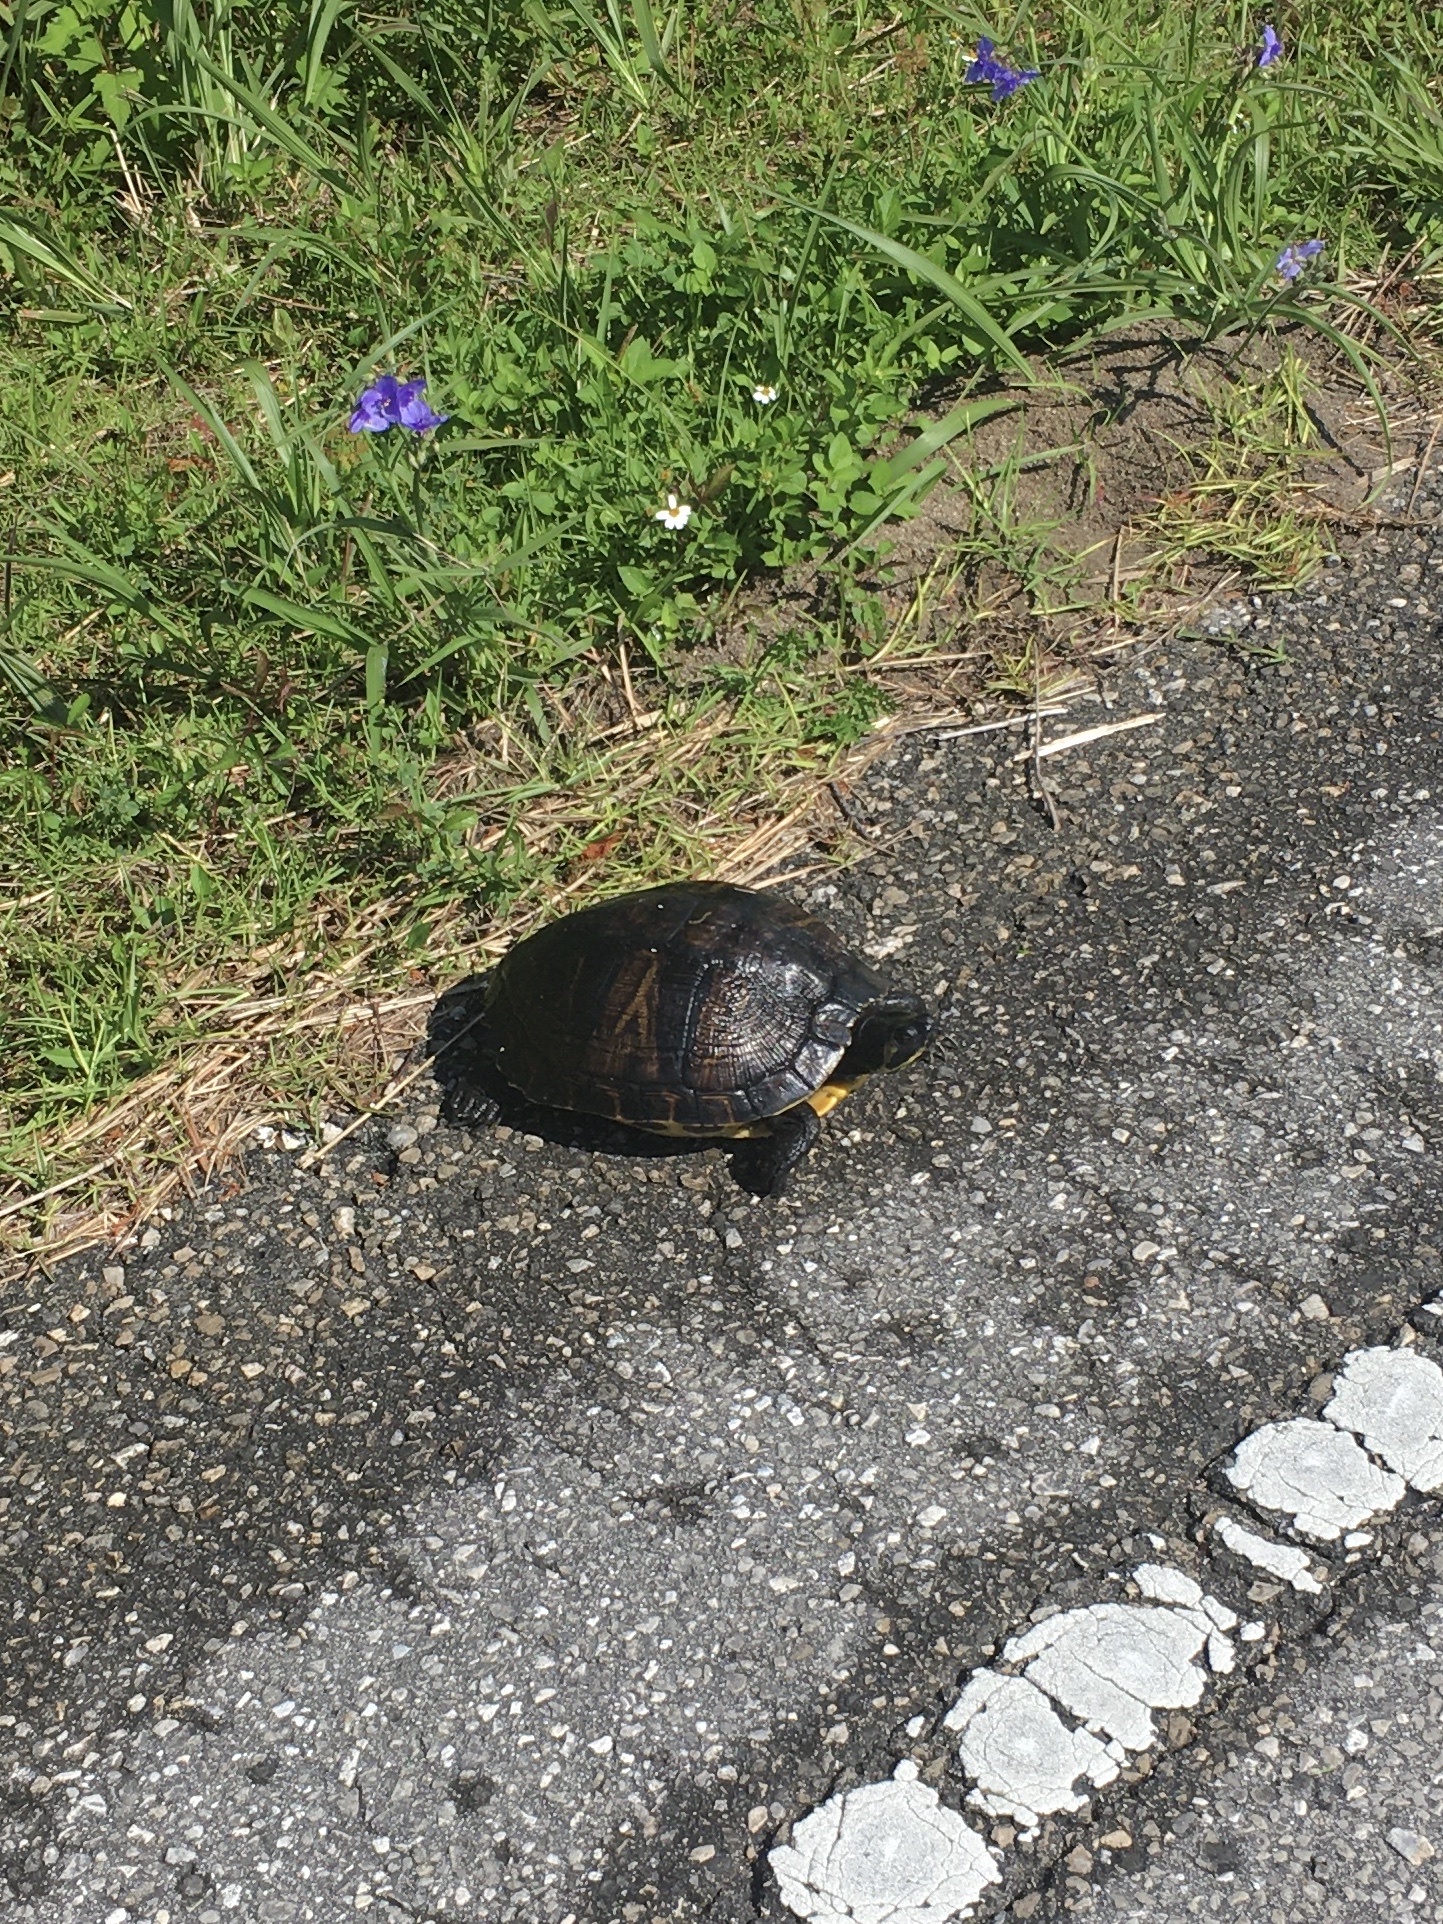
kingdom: Animalia
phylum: Chordata
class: Testudines
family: Emydidae
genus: Trachemys
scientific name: Trachemys scripta
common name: Slider
